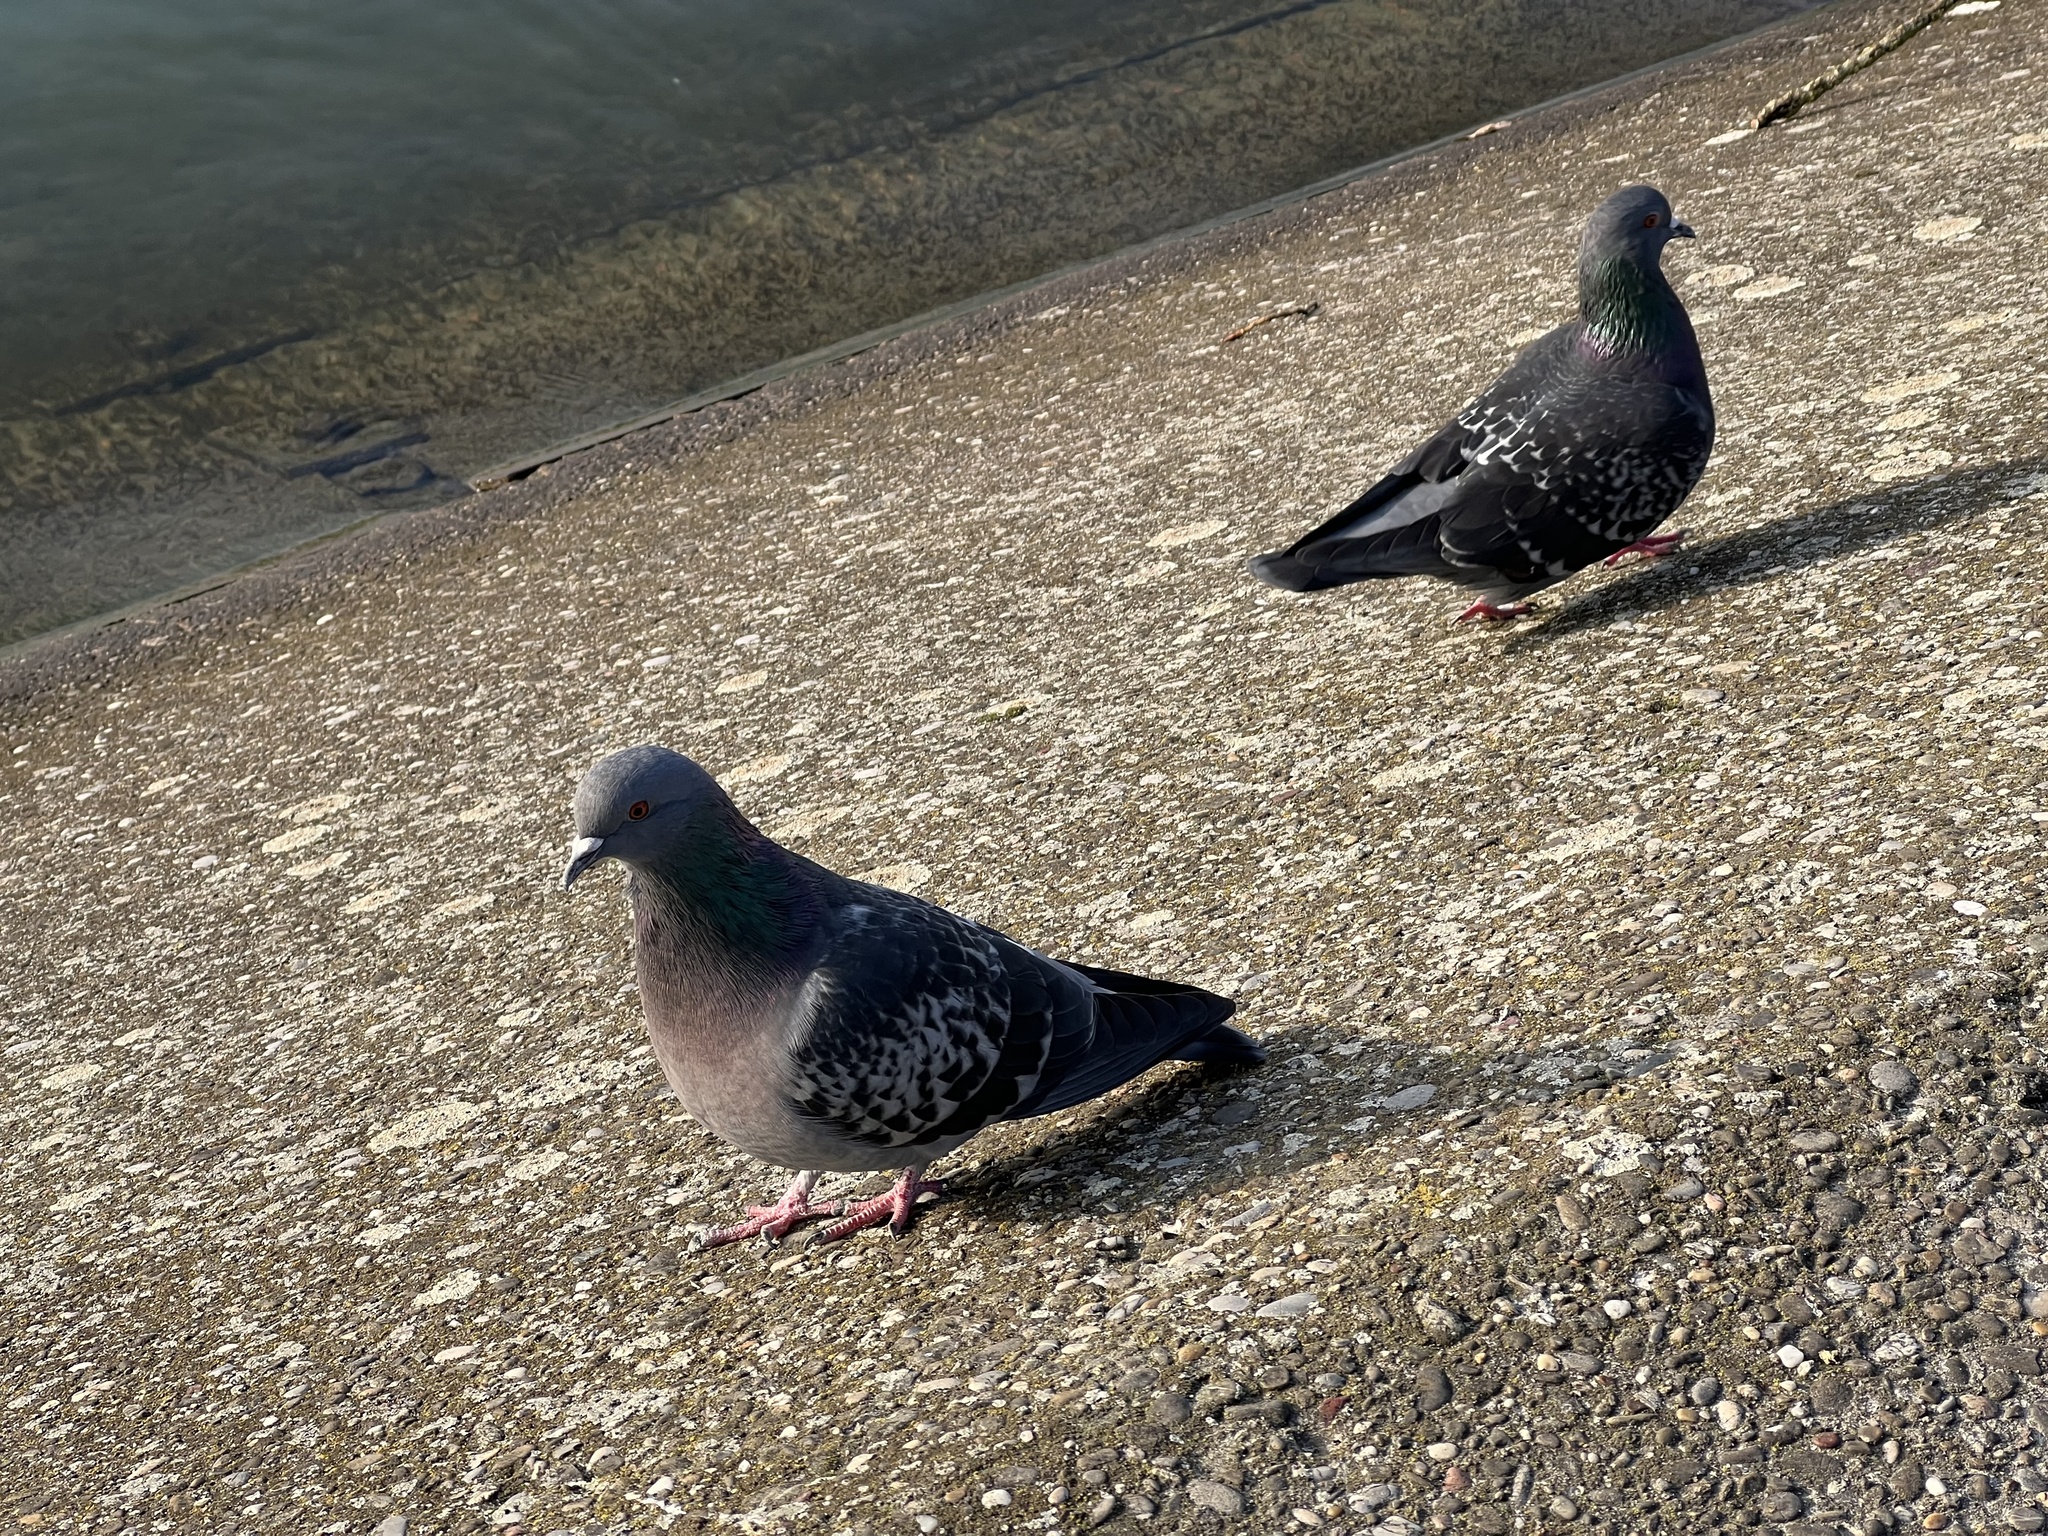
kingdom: Animalia
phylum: Chordata
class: Aves
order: Columbiformes
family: Columbidae
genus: Columba
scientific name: Columba livia
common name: Rock pigeon
